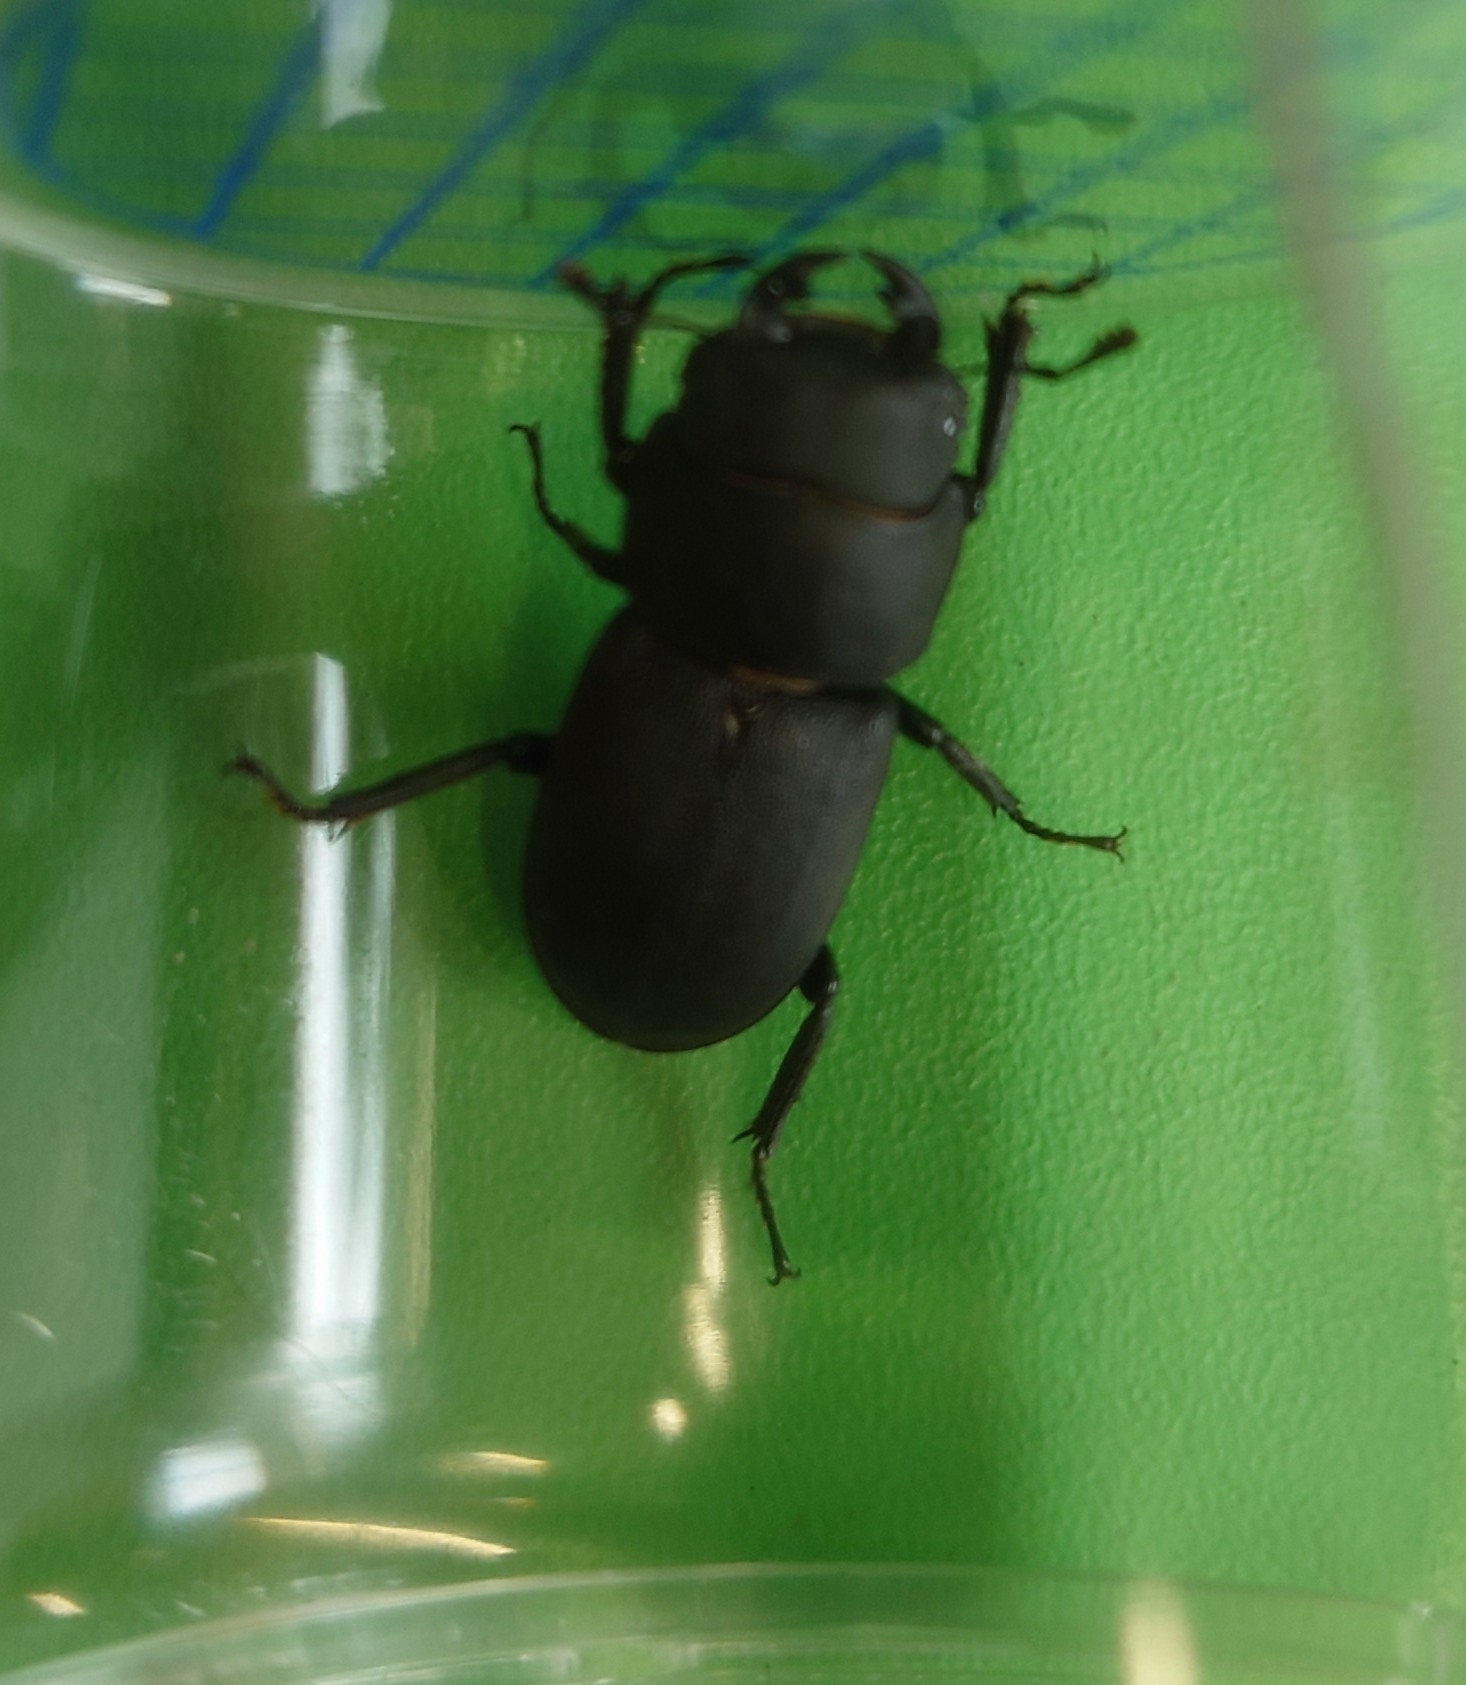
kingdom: Animalia
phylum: Arthropoda
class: Insecta
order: Coleoptera
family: Lucanidae
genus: Dorcus
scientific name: Dorcus parallelipipedus
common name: Lesser stag beetle
